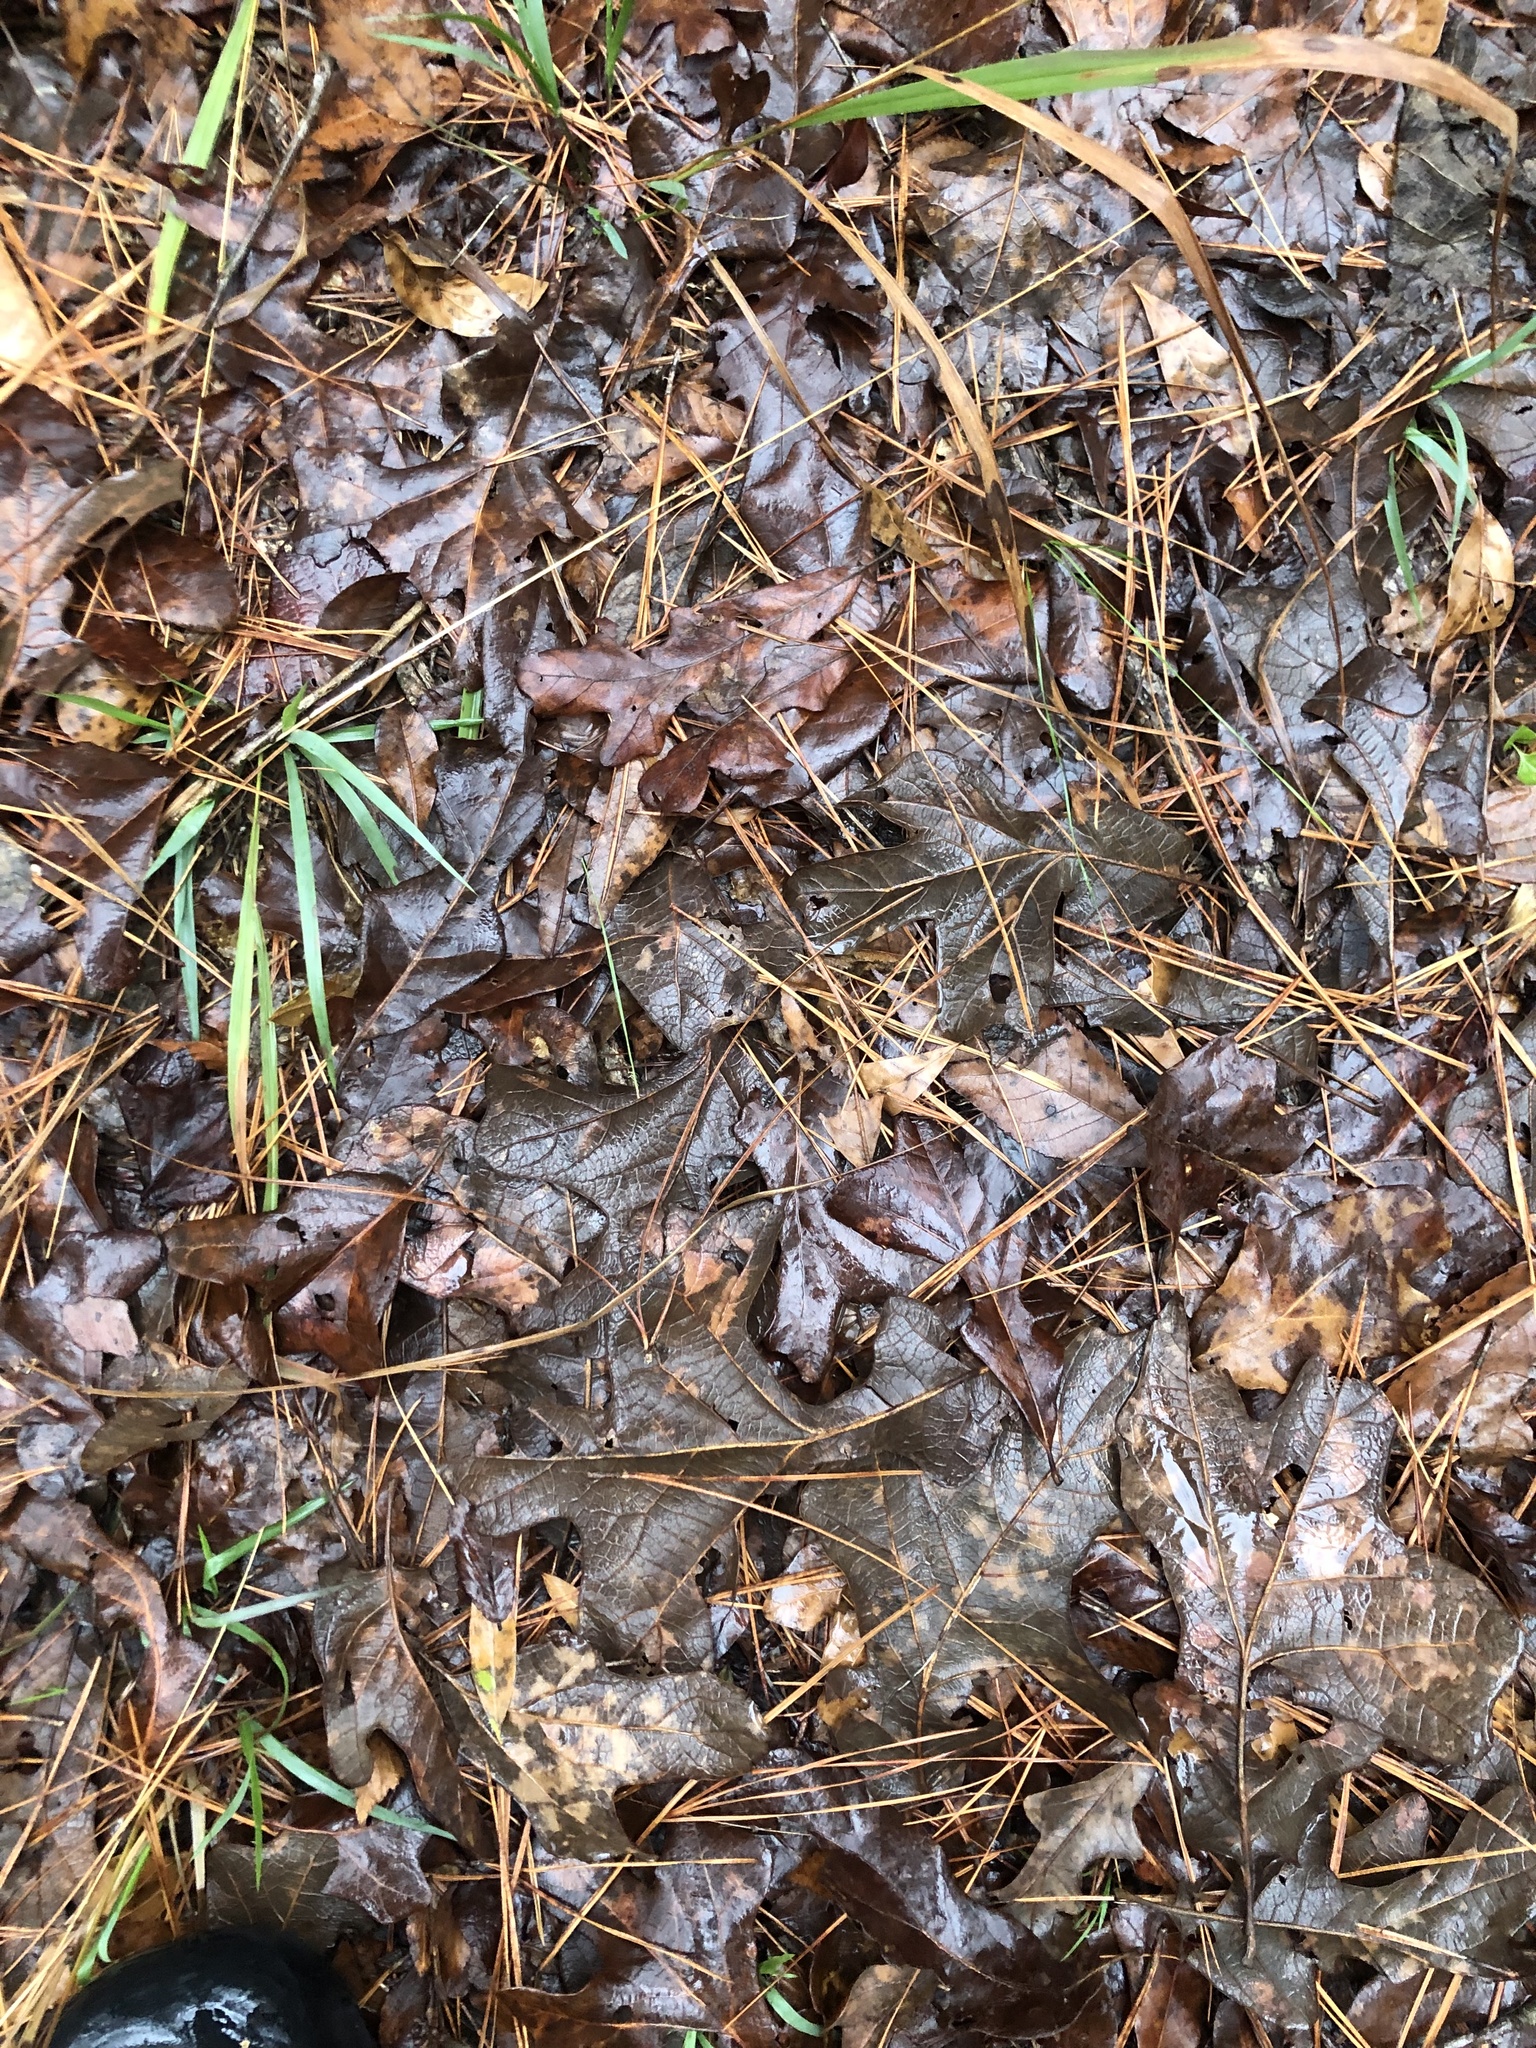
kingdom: Plantae
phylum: Tracheophyta
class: Magnoliopsida
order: Fagales
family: Fagaceae
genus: Quercus
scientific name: Quercus stellata
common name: Post oak
